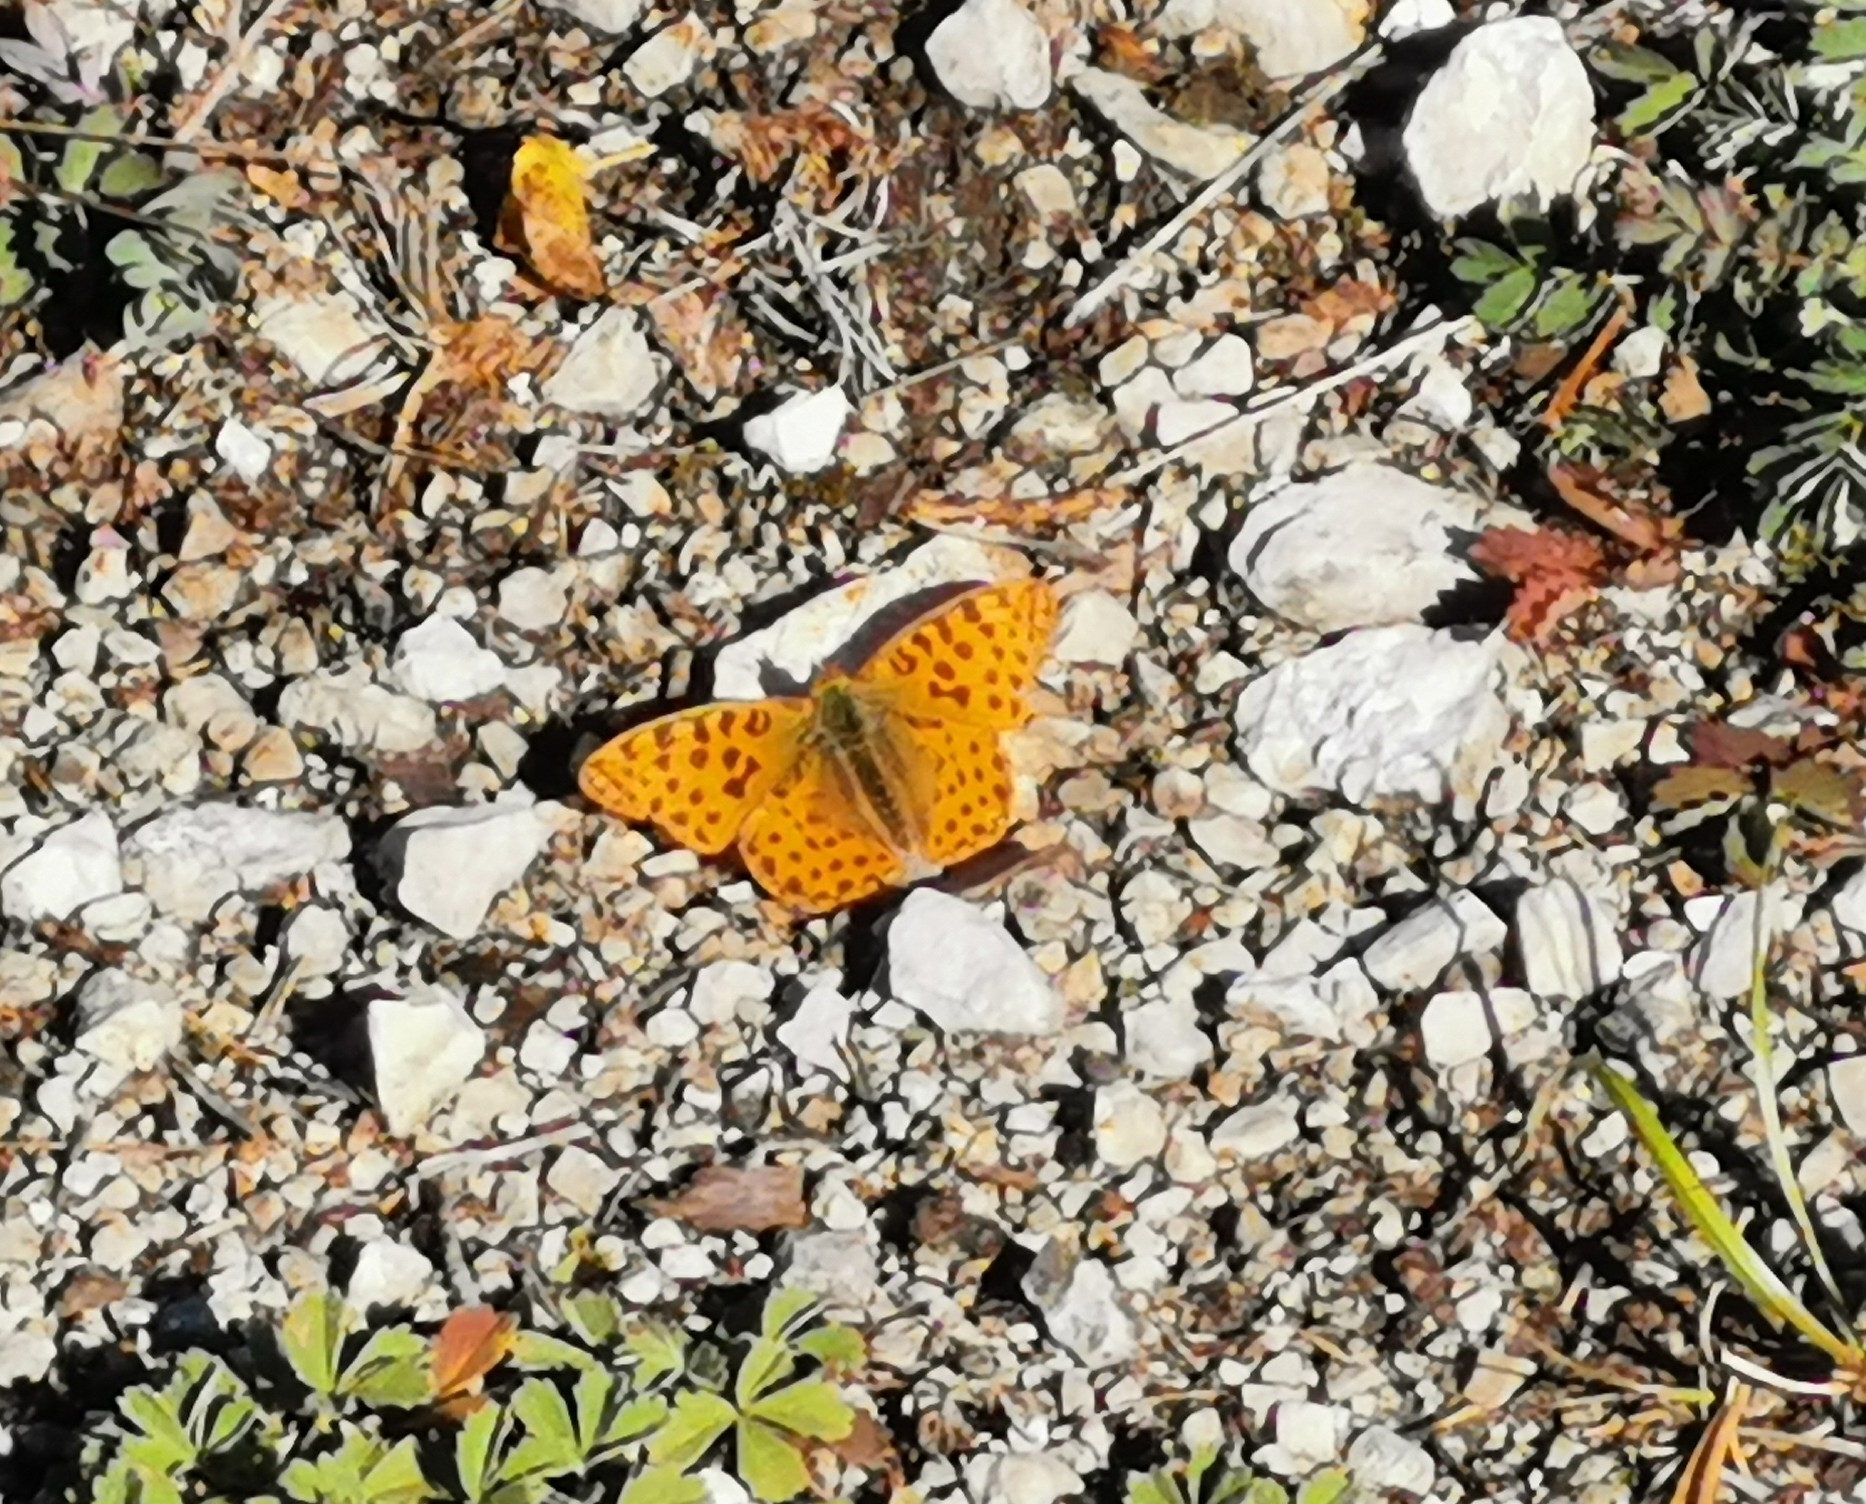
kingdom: Animalia
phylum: Arthropoda
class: Insecta
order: Lepidoptera
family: Nymphalidae
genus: Issoria
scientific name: Issoria lathonia
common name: Queen of spain fritillary
